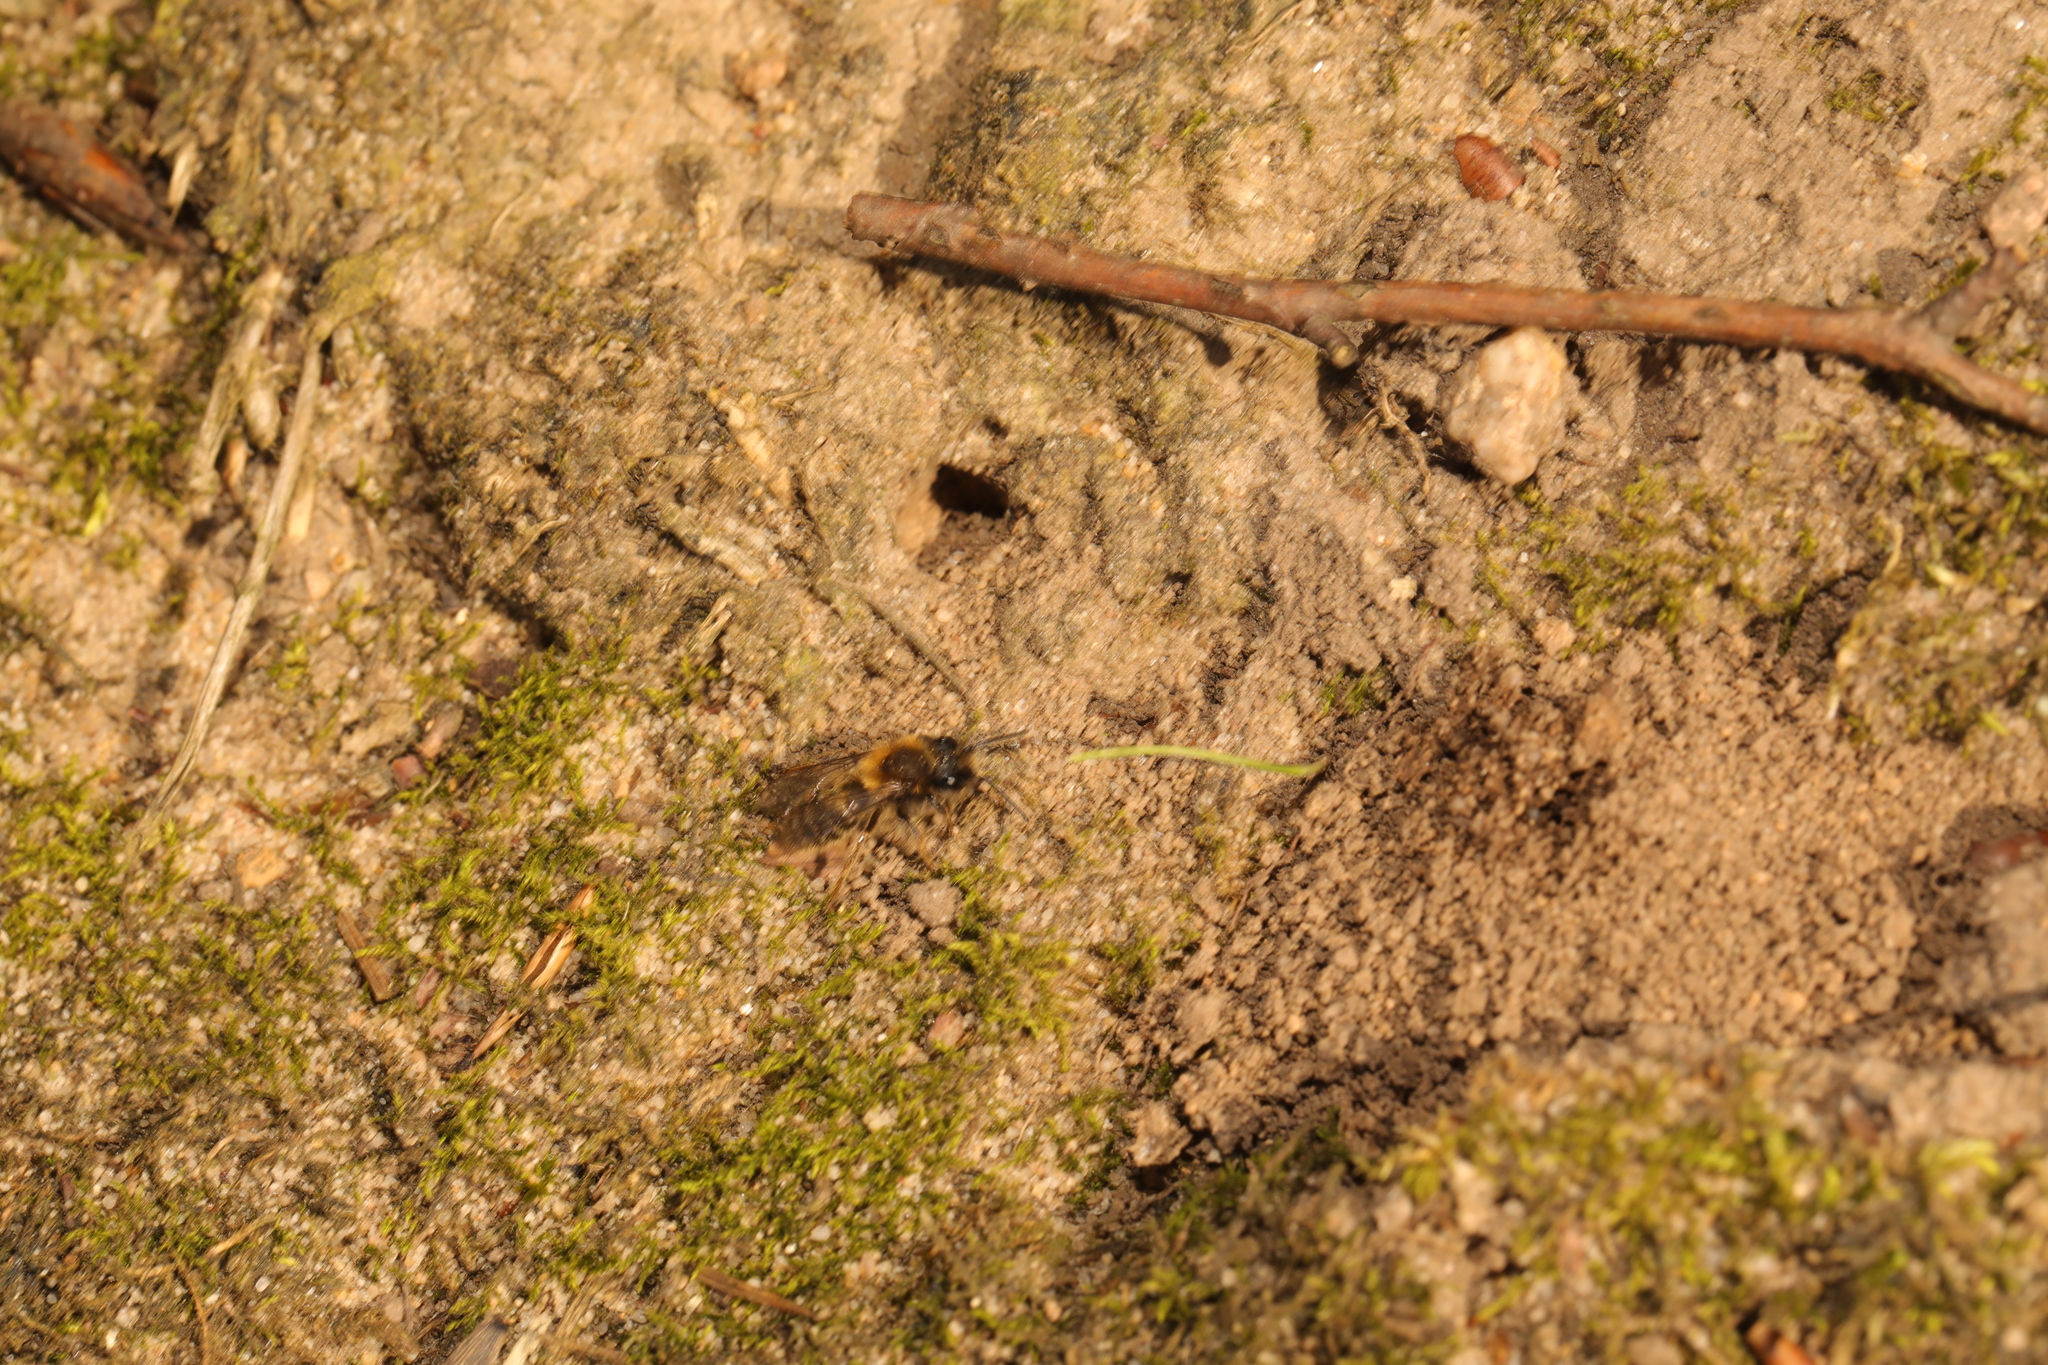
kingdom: Animalia
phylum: Arthropoda
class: Insecta
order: Hymenoptera
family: Andrenidae
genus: Andrena
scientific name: Andrena clarkella
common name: Clarke's mining bee
